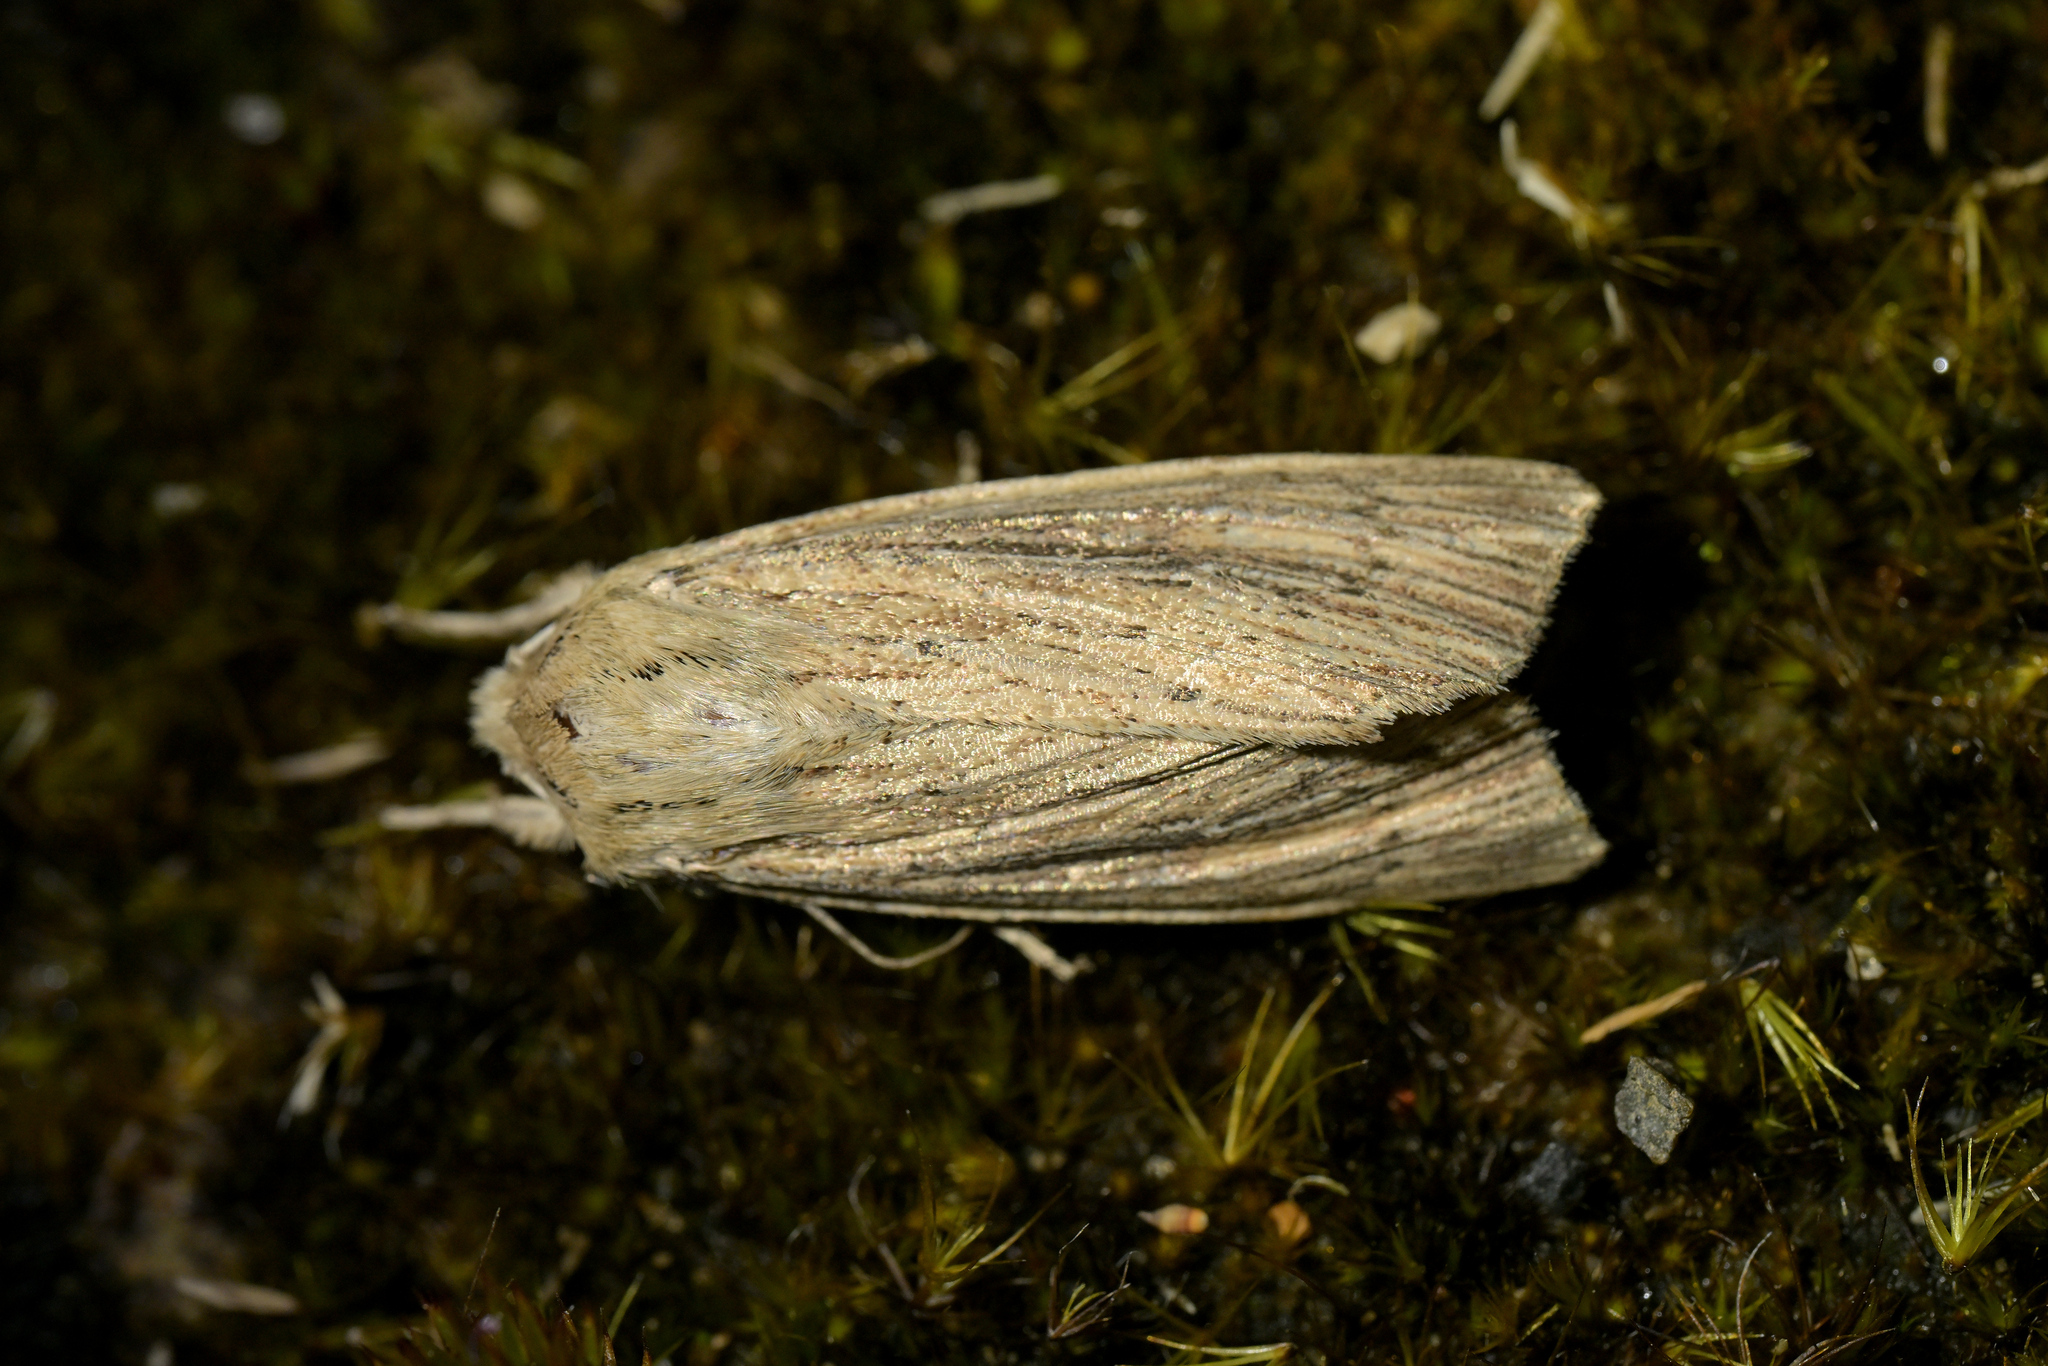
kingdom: Animalia
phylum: Arthropoda
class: Insecta
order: Lepidoptera
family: Noctuidae
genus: Ichneutica
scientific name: Ichneutica arotis
